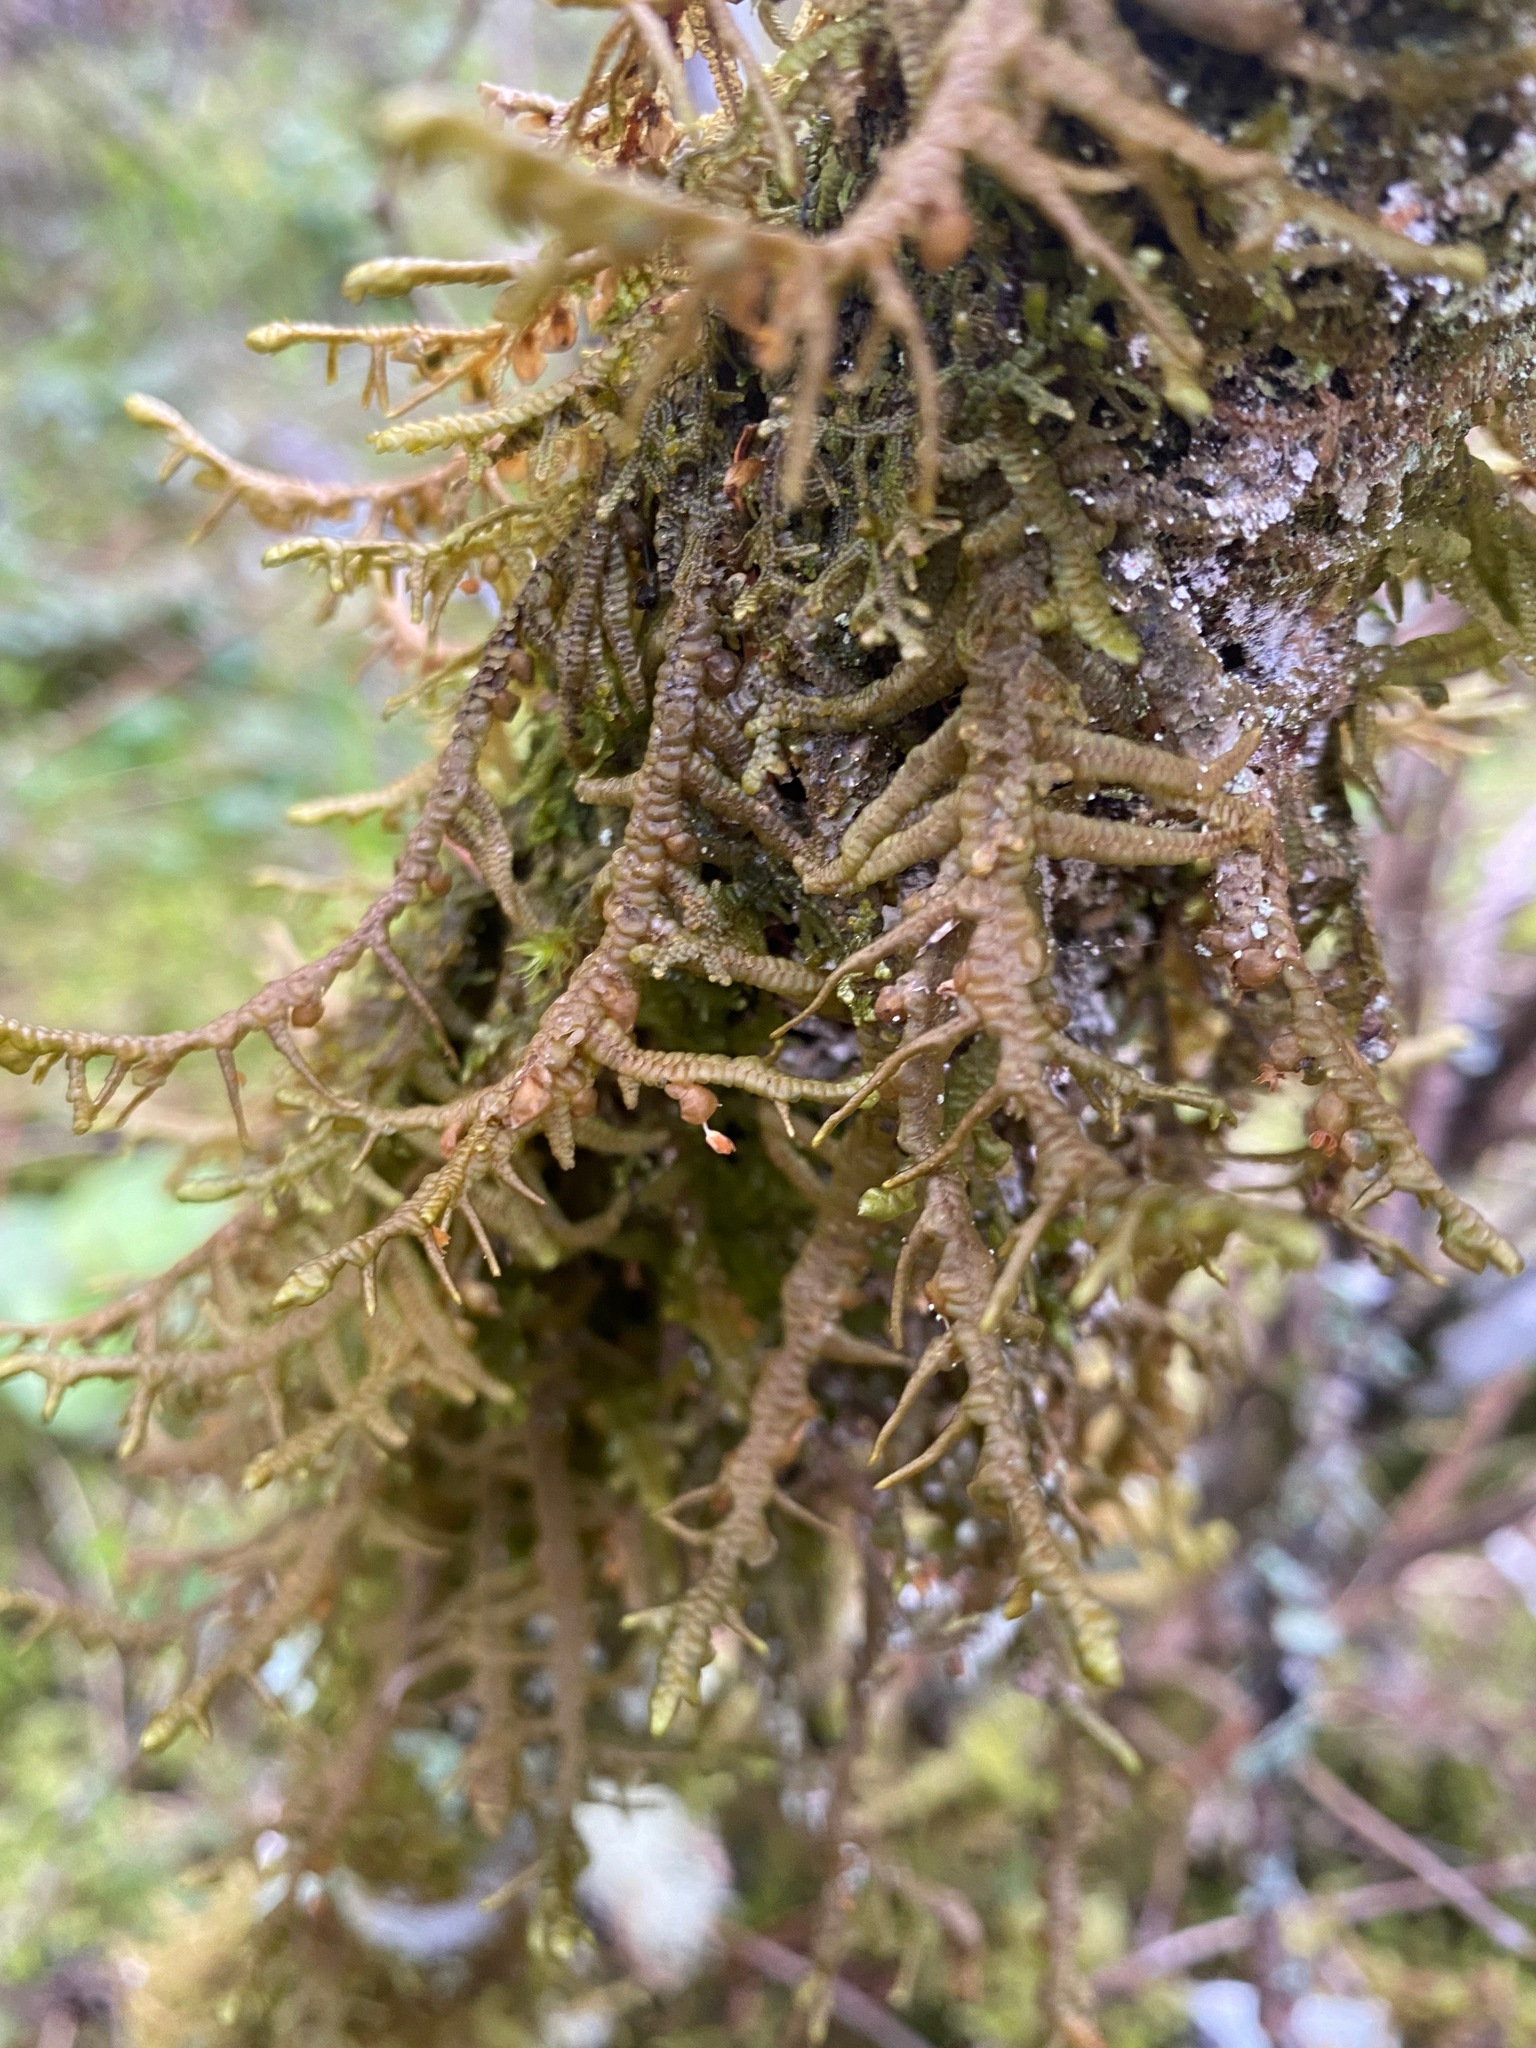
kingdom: Plantae
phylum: Marchantiophyta
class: Jungermanniopsida
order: Porellales
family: Porellaceae
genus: Porella
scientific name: Porella navicularis
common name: Tree ruffle liverwort
